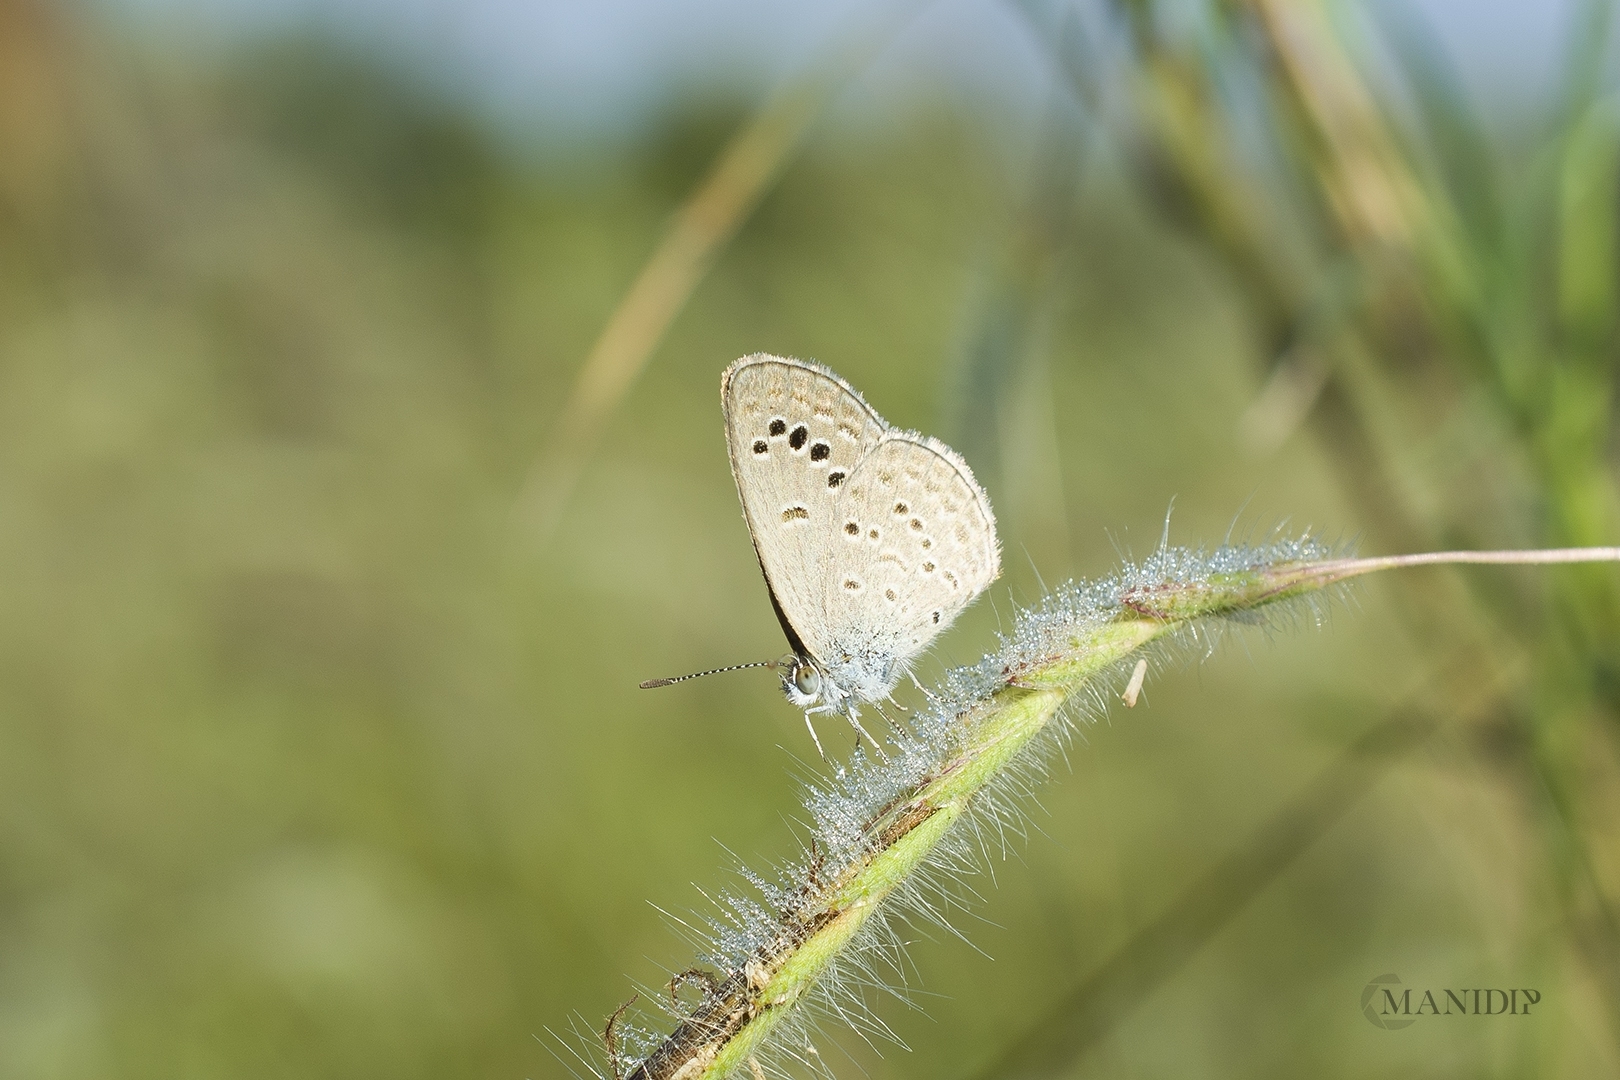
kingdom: Animalia
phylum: Arthropoda
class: Insecta
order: Lepidoptera
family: Lycaenidae
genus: Zizina
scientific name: Zizina otis
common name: Lesser grass blue
